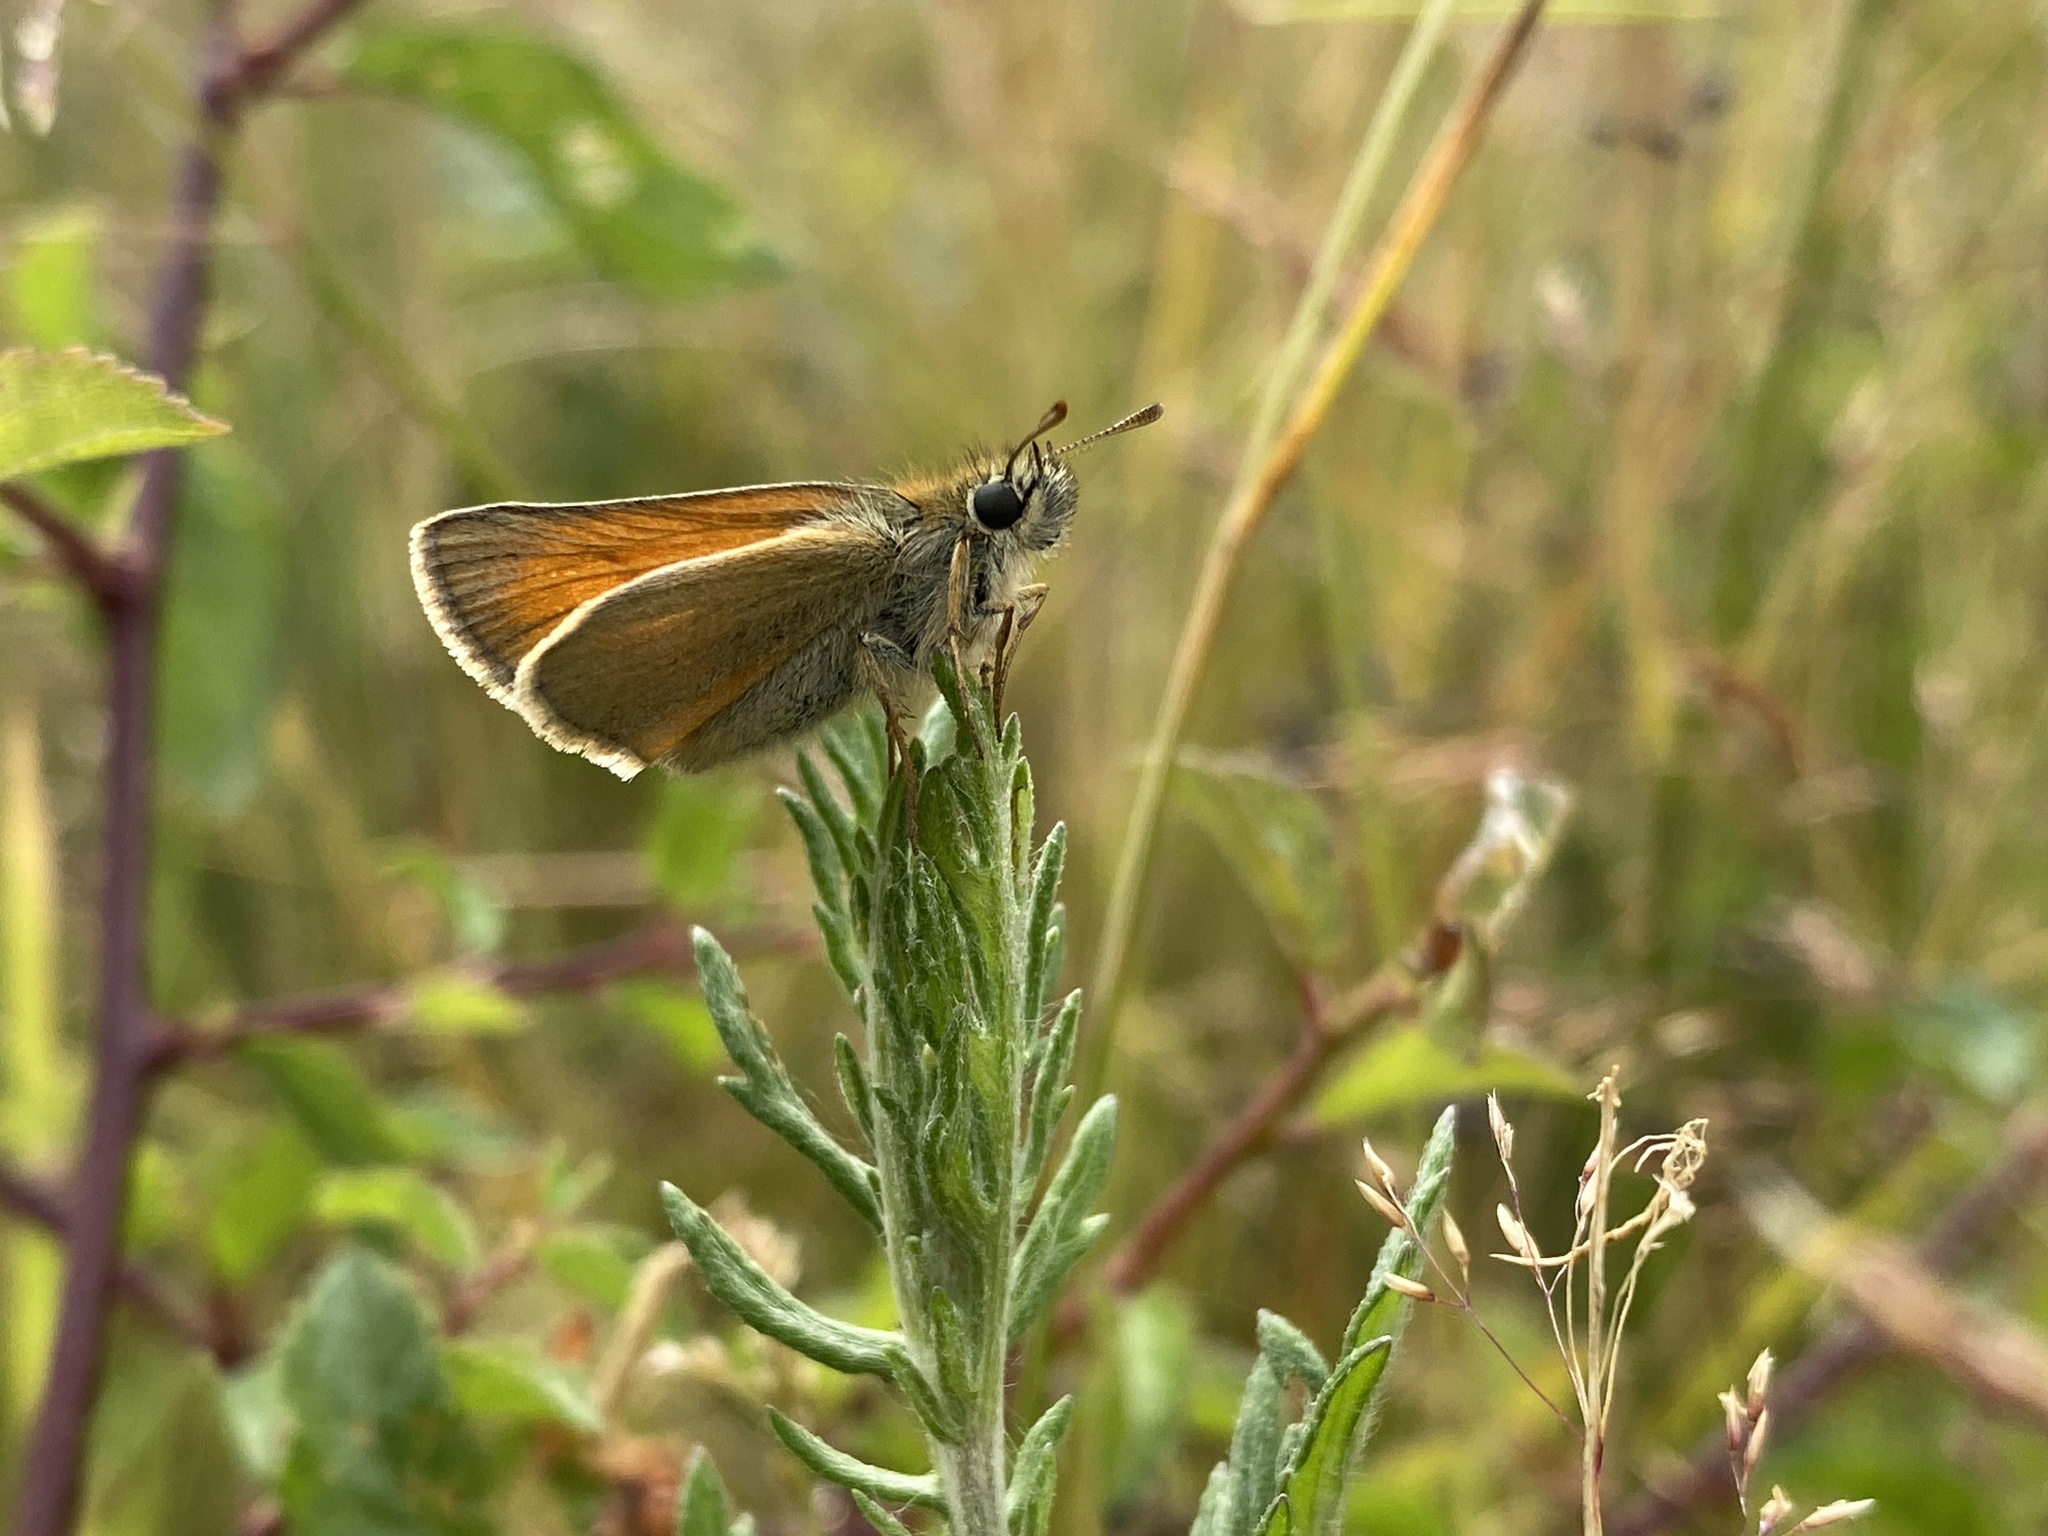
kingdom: Animalia
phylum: Arthropoda
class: Insecta
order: Lepidoptera
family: Hesperiidae
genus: Thymelicus
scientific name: Thymelicus sylvestris
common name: Small skipper
